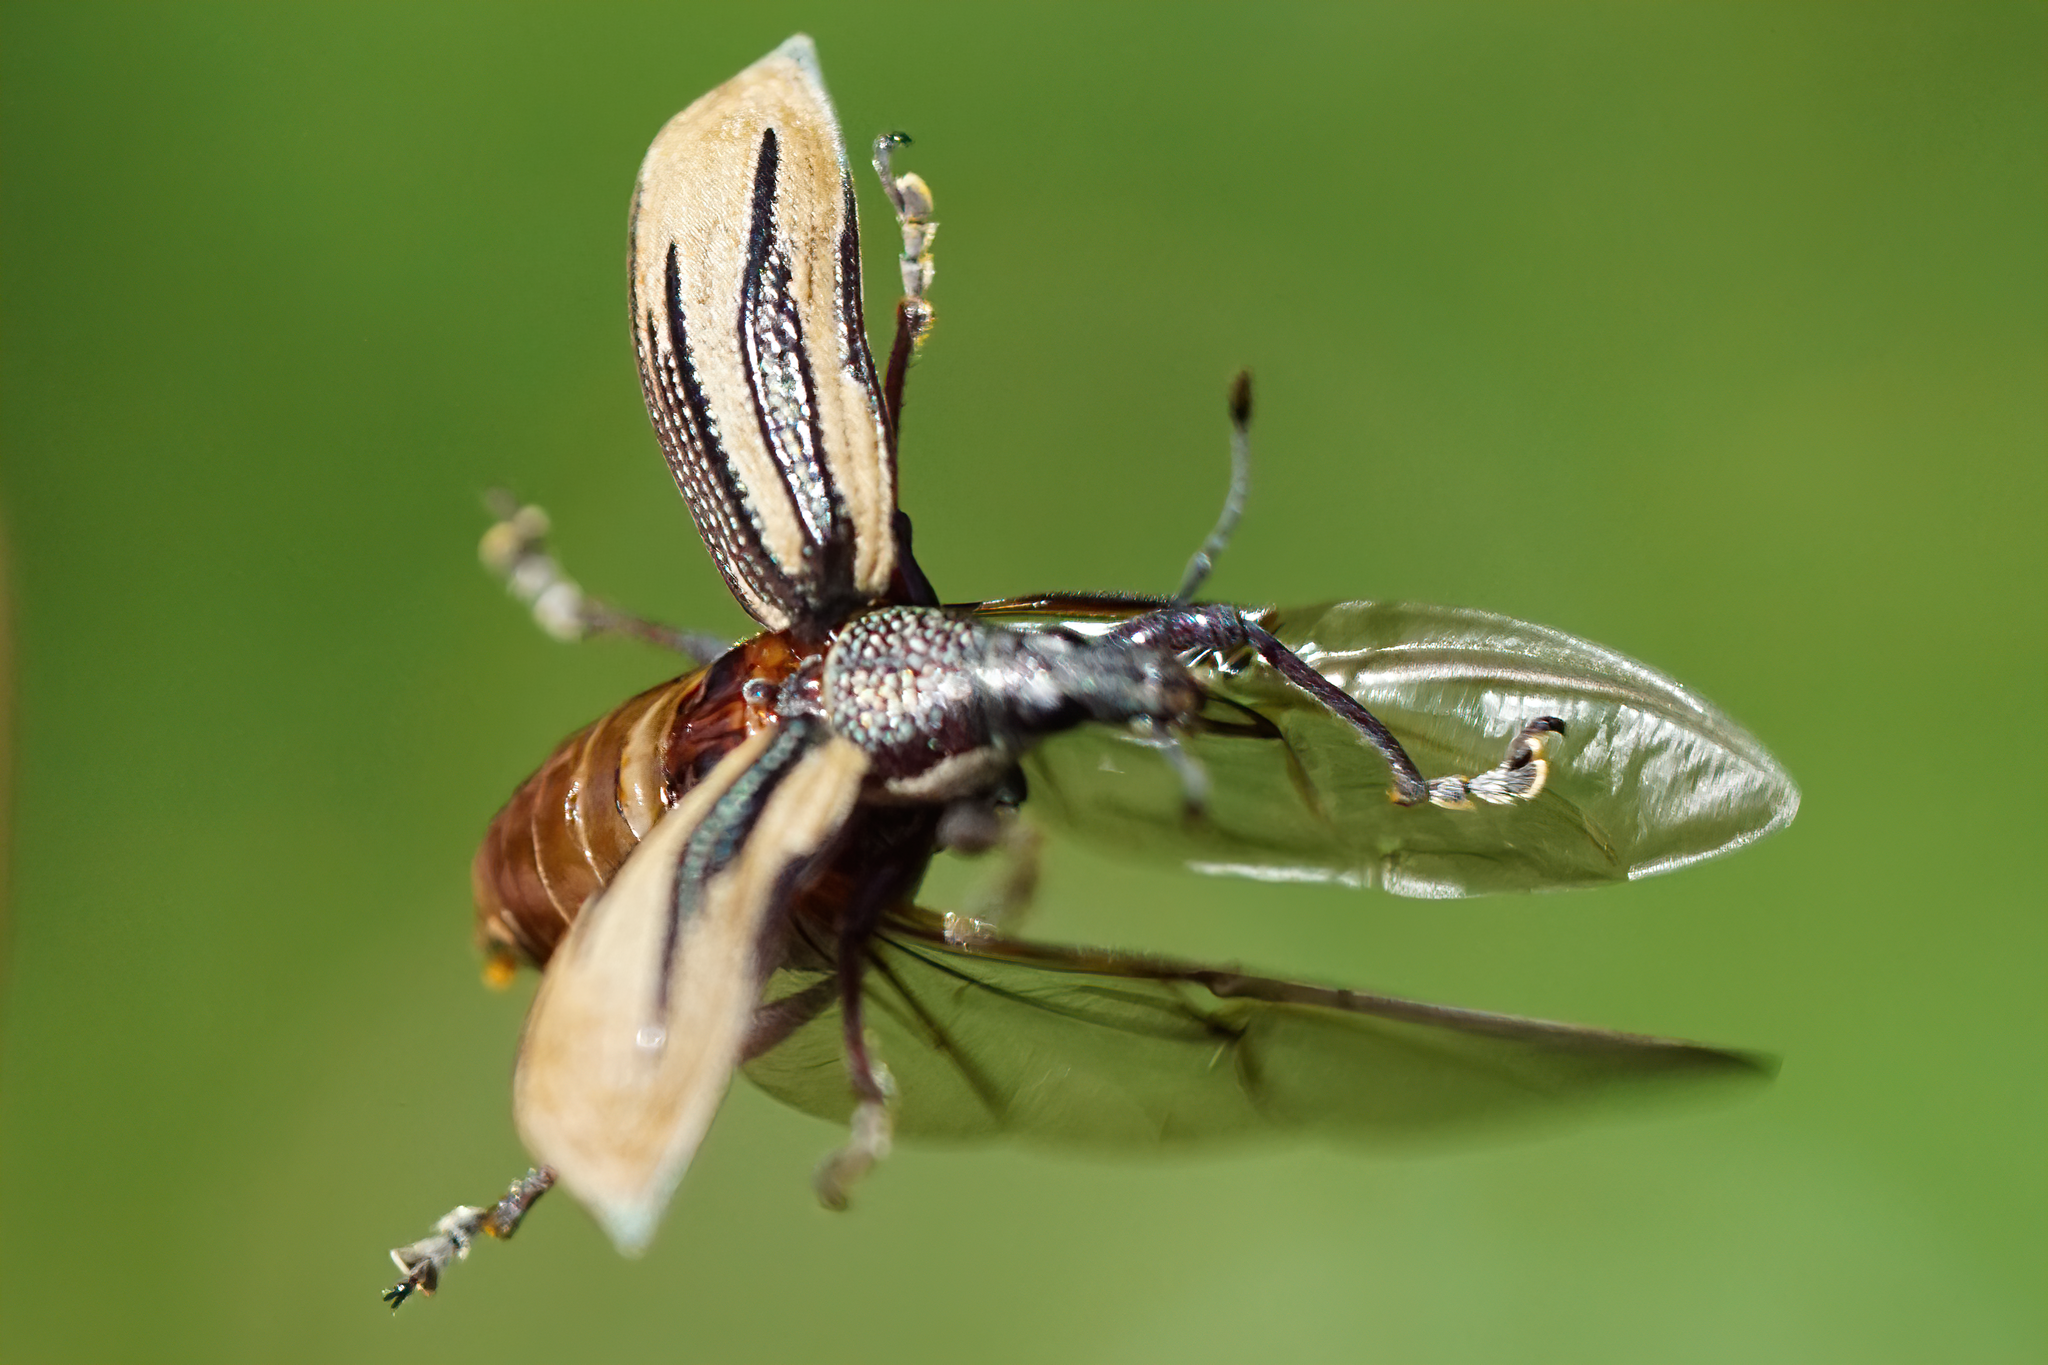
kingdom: Animalia
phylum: Arthropoda
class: Insecta
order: Coleoptera
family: Curculionidae
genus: Diaprepes
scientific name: Diaprepes abbreviatus
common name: Root weevil
